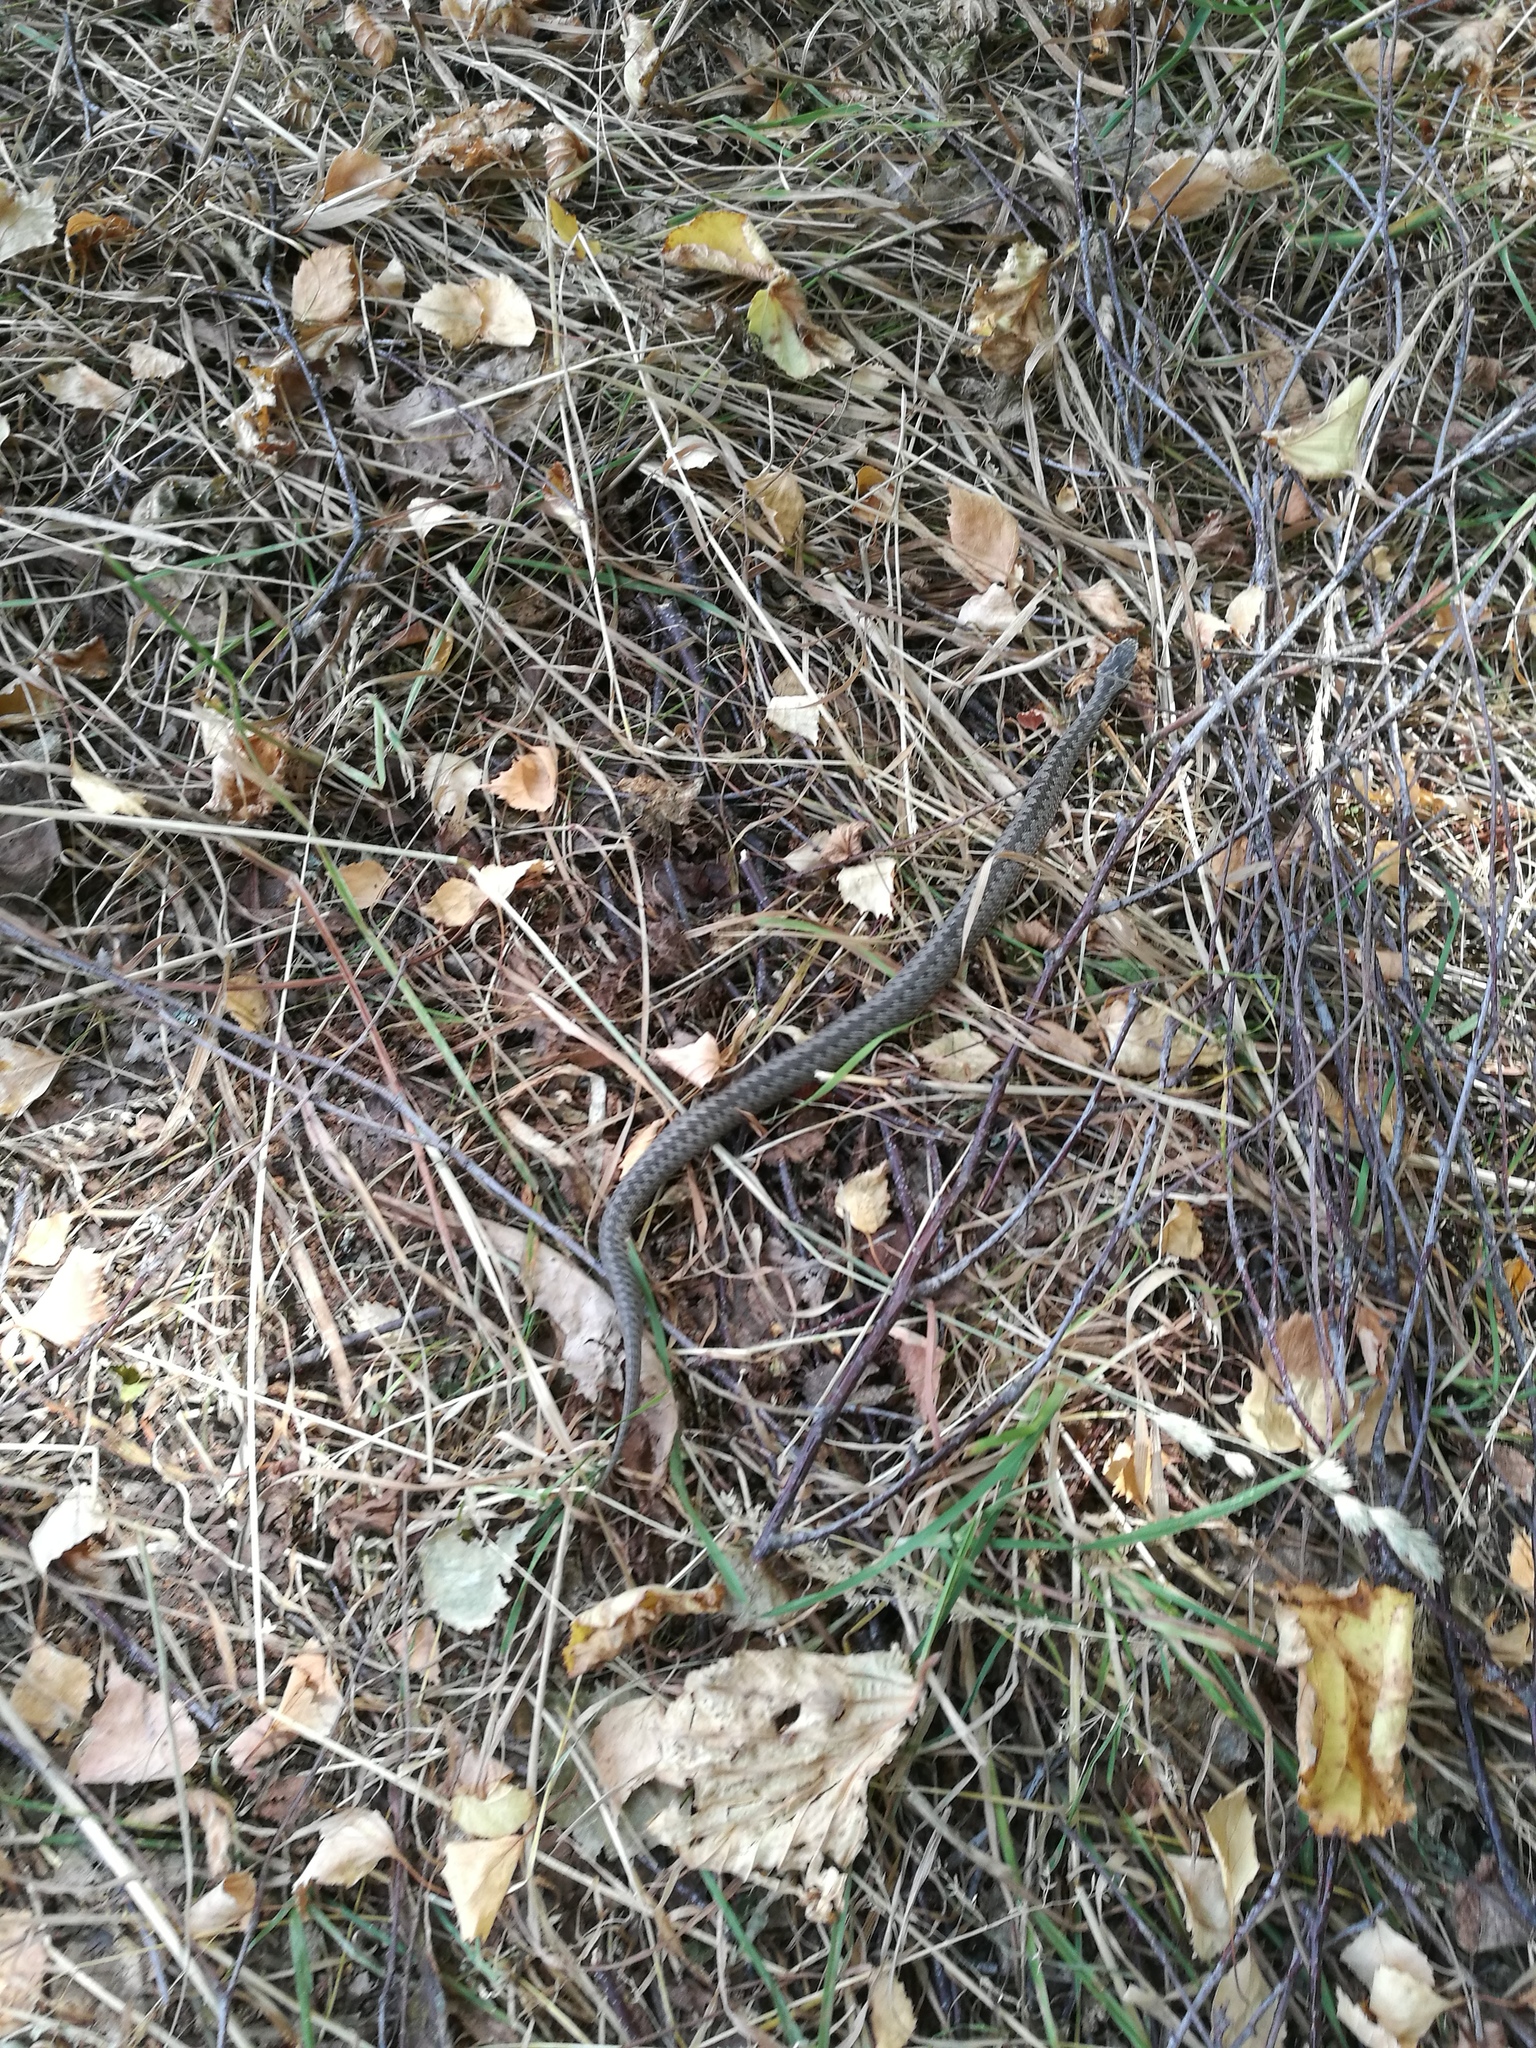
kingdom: Animalia
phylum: Chordata
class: Squamata
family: Viperidae
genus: Vipera
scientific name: Vipera berus
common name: Adder
